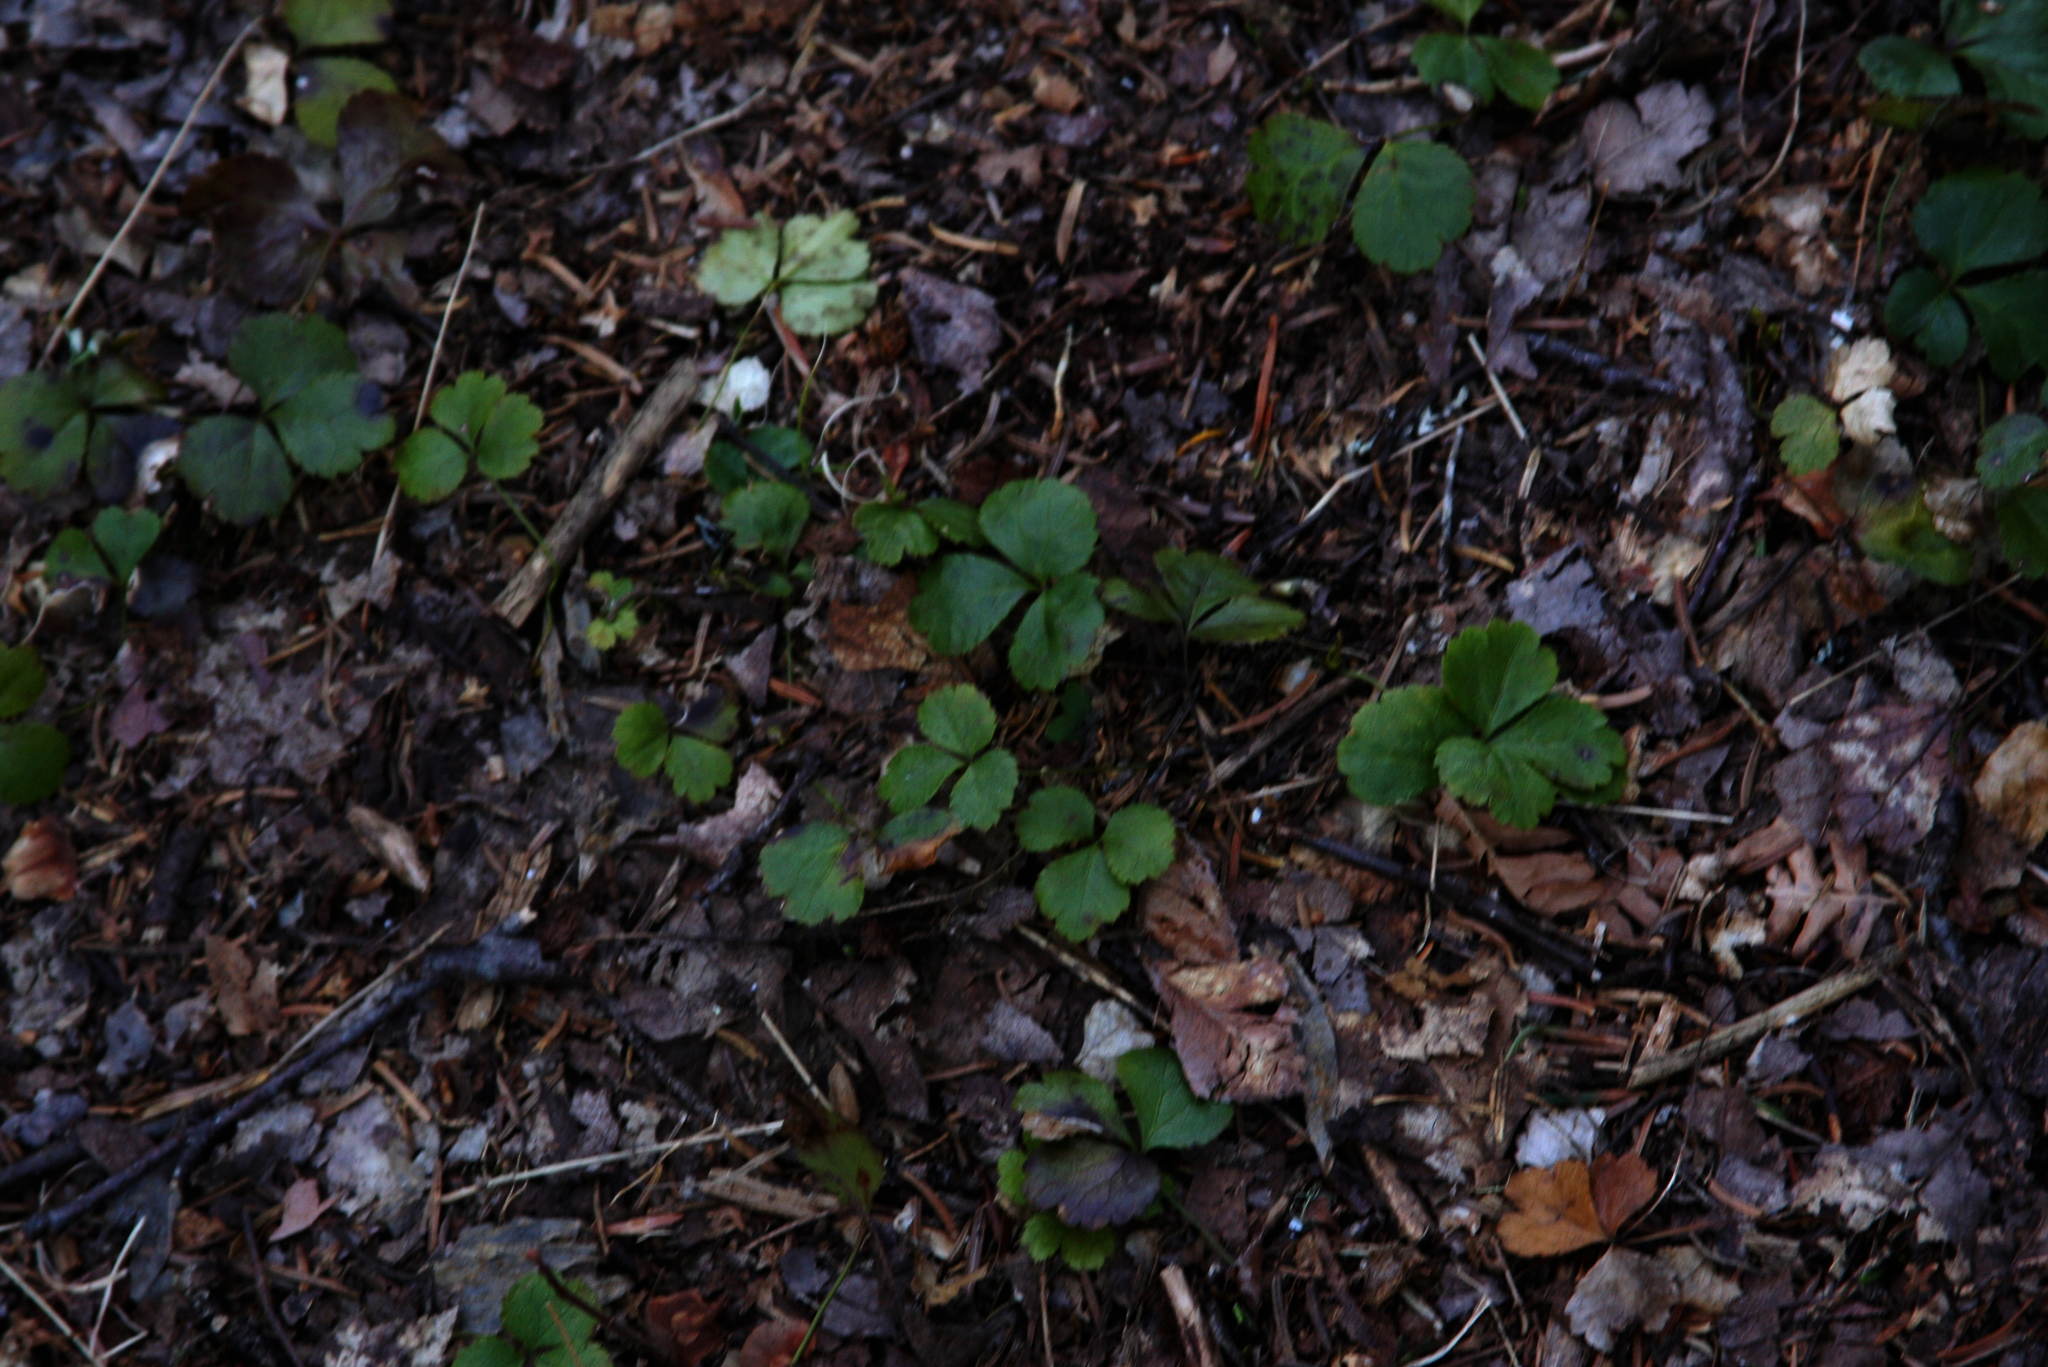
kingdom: Plantae
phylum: Tracheophyta
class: Magnoliopsida
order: Ranunculales
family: Ranunculaceae
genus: Coptis
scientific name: Coptis trifolia
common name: Canker-root
